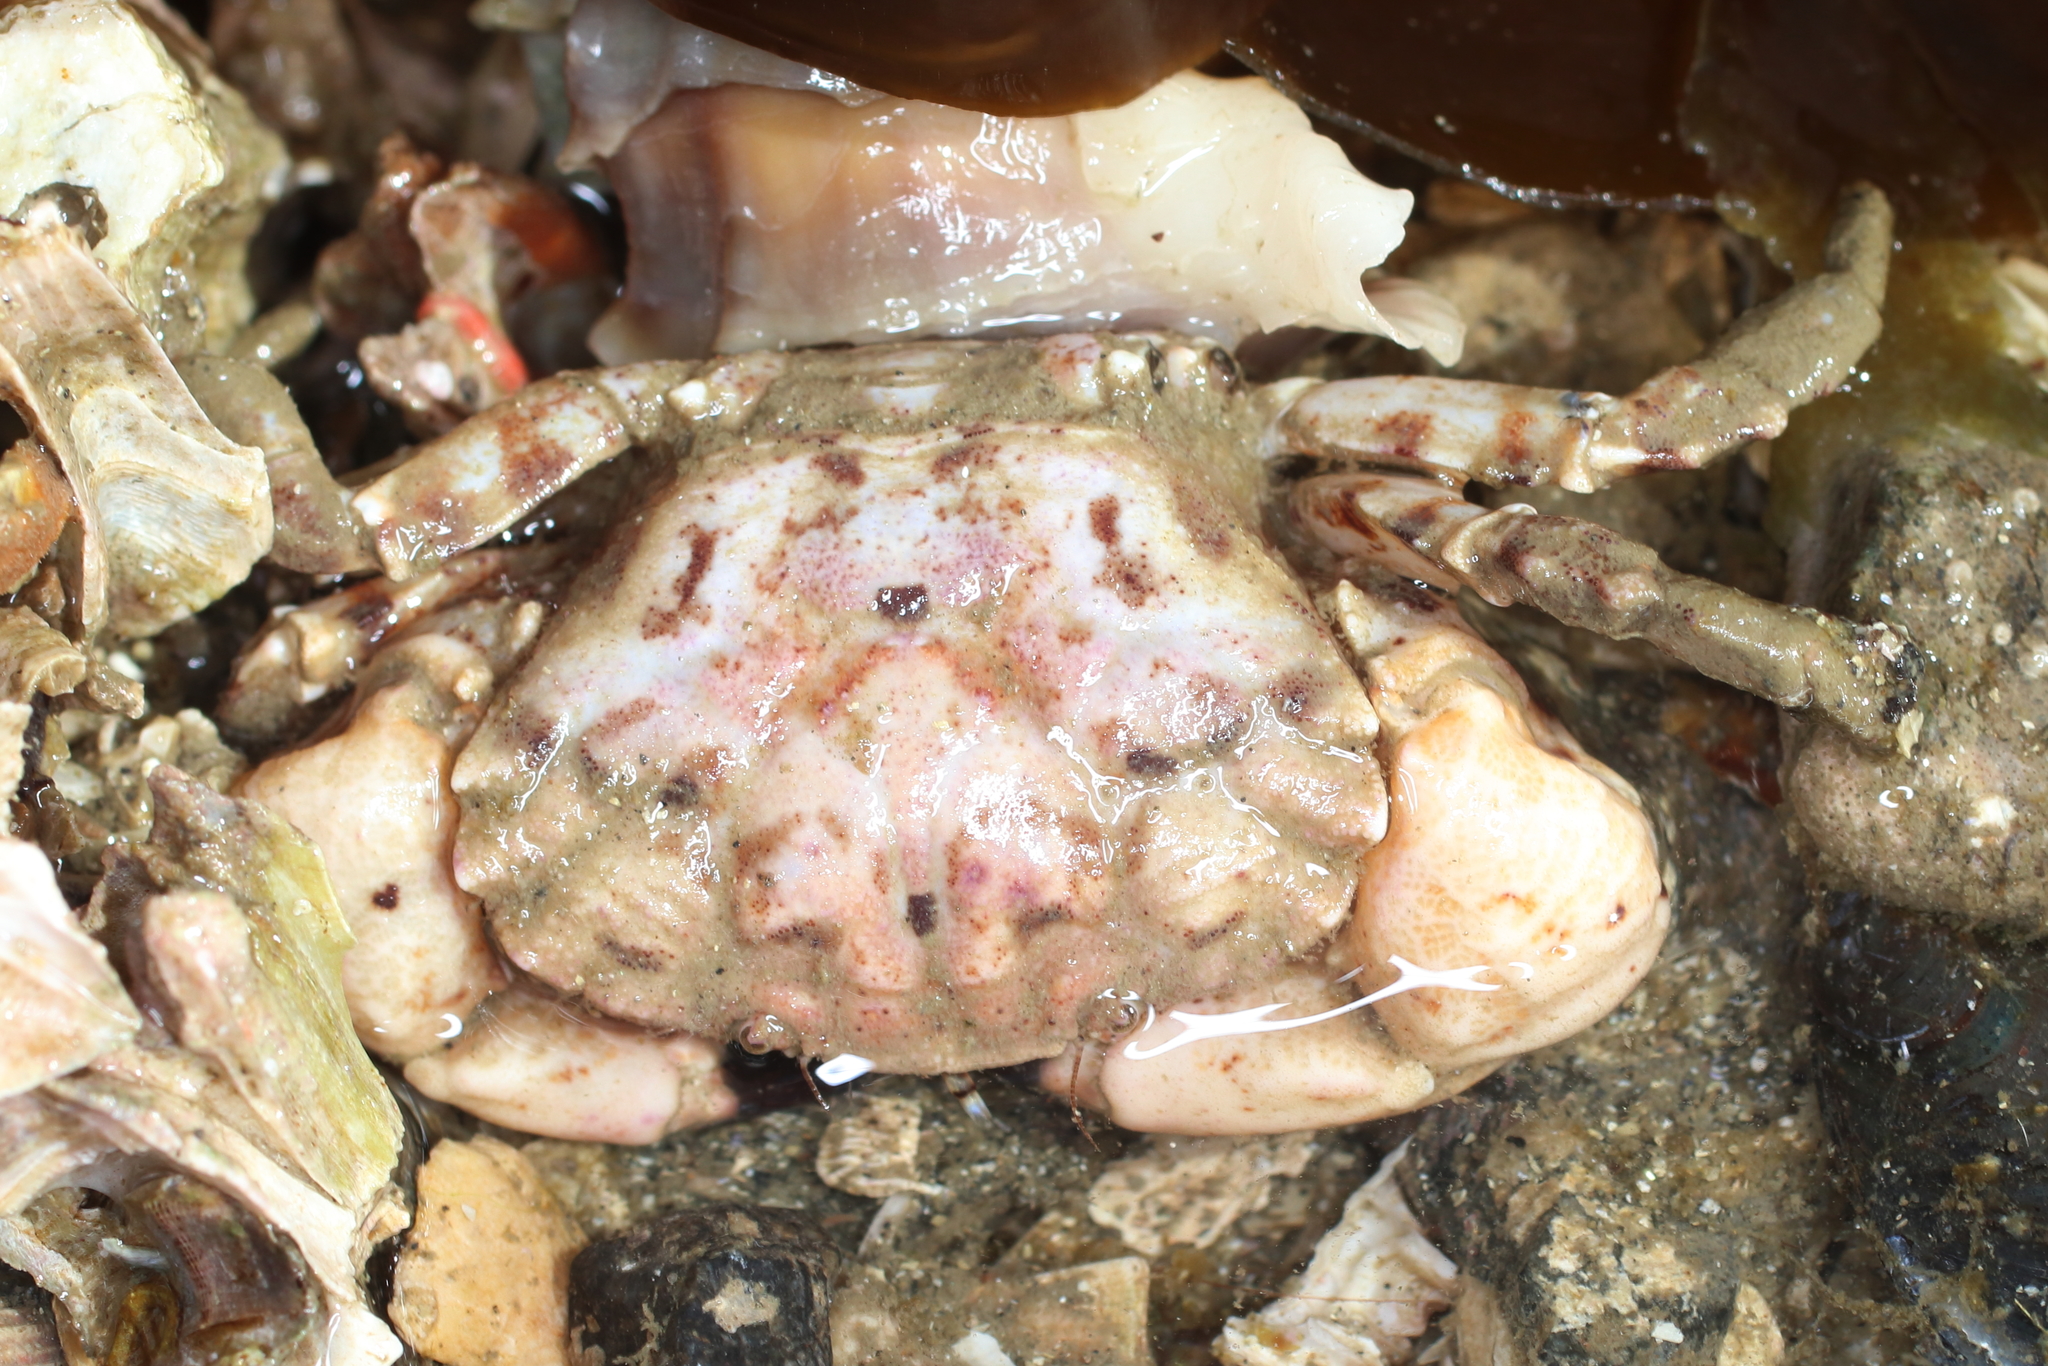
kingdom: Animalia
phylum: Arthropoda
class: Malacostraca
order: Decapoda
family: Panopeidae
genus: Lophopanopeus
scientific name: Lophopanopeus bellus
